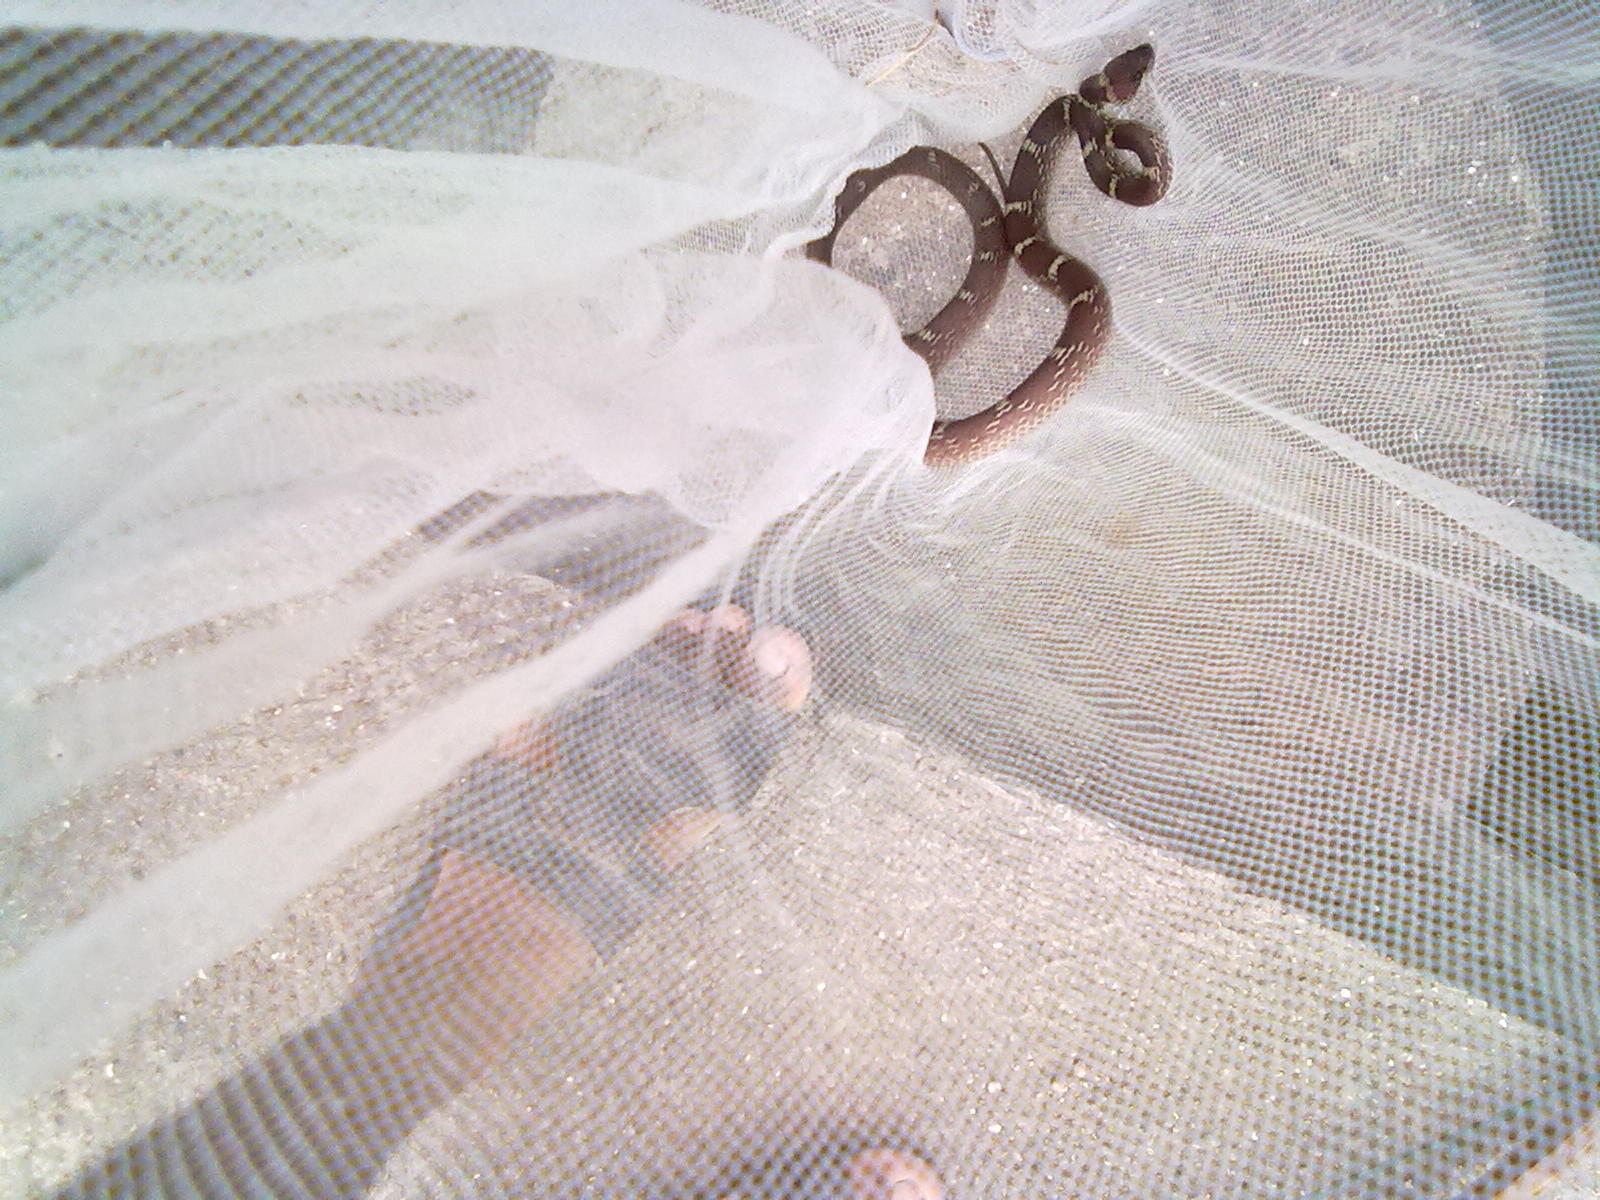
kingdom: Animalia
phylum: Chordata
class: Squamata
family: Colubridae
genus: Lycodon
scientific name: Lycodon aulicus
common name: Common wolf snake
